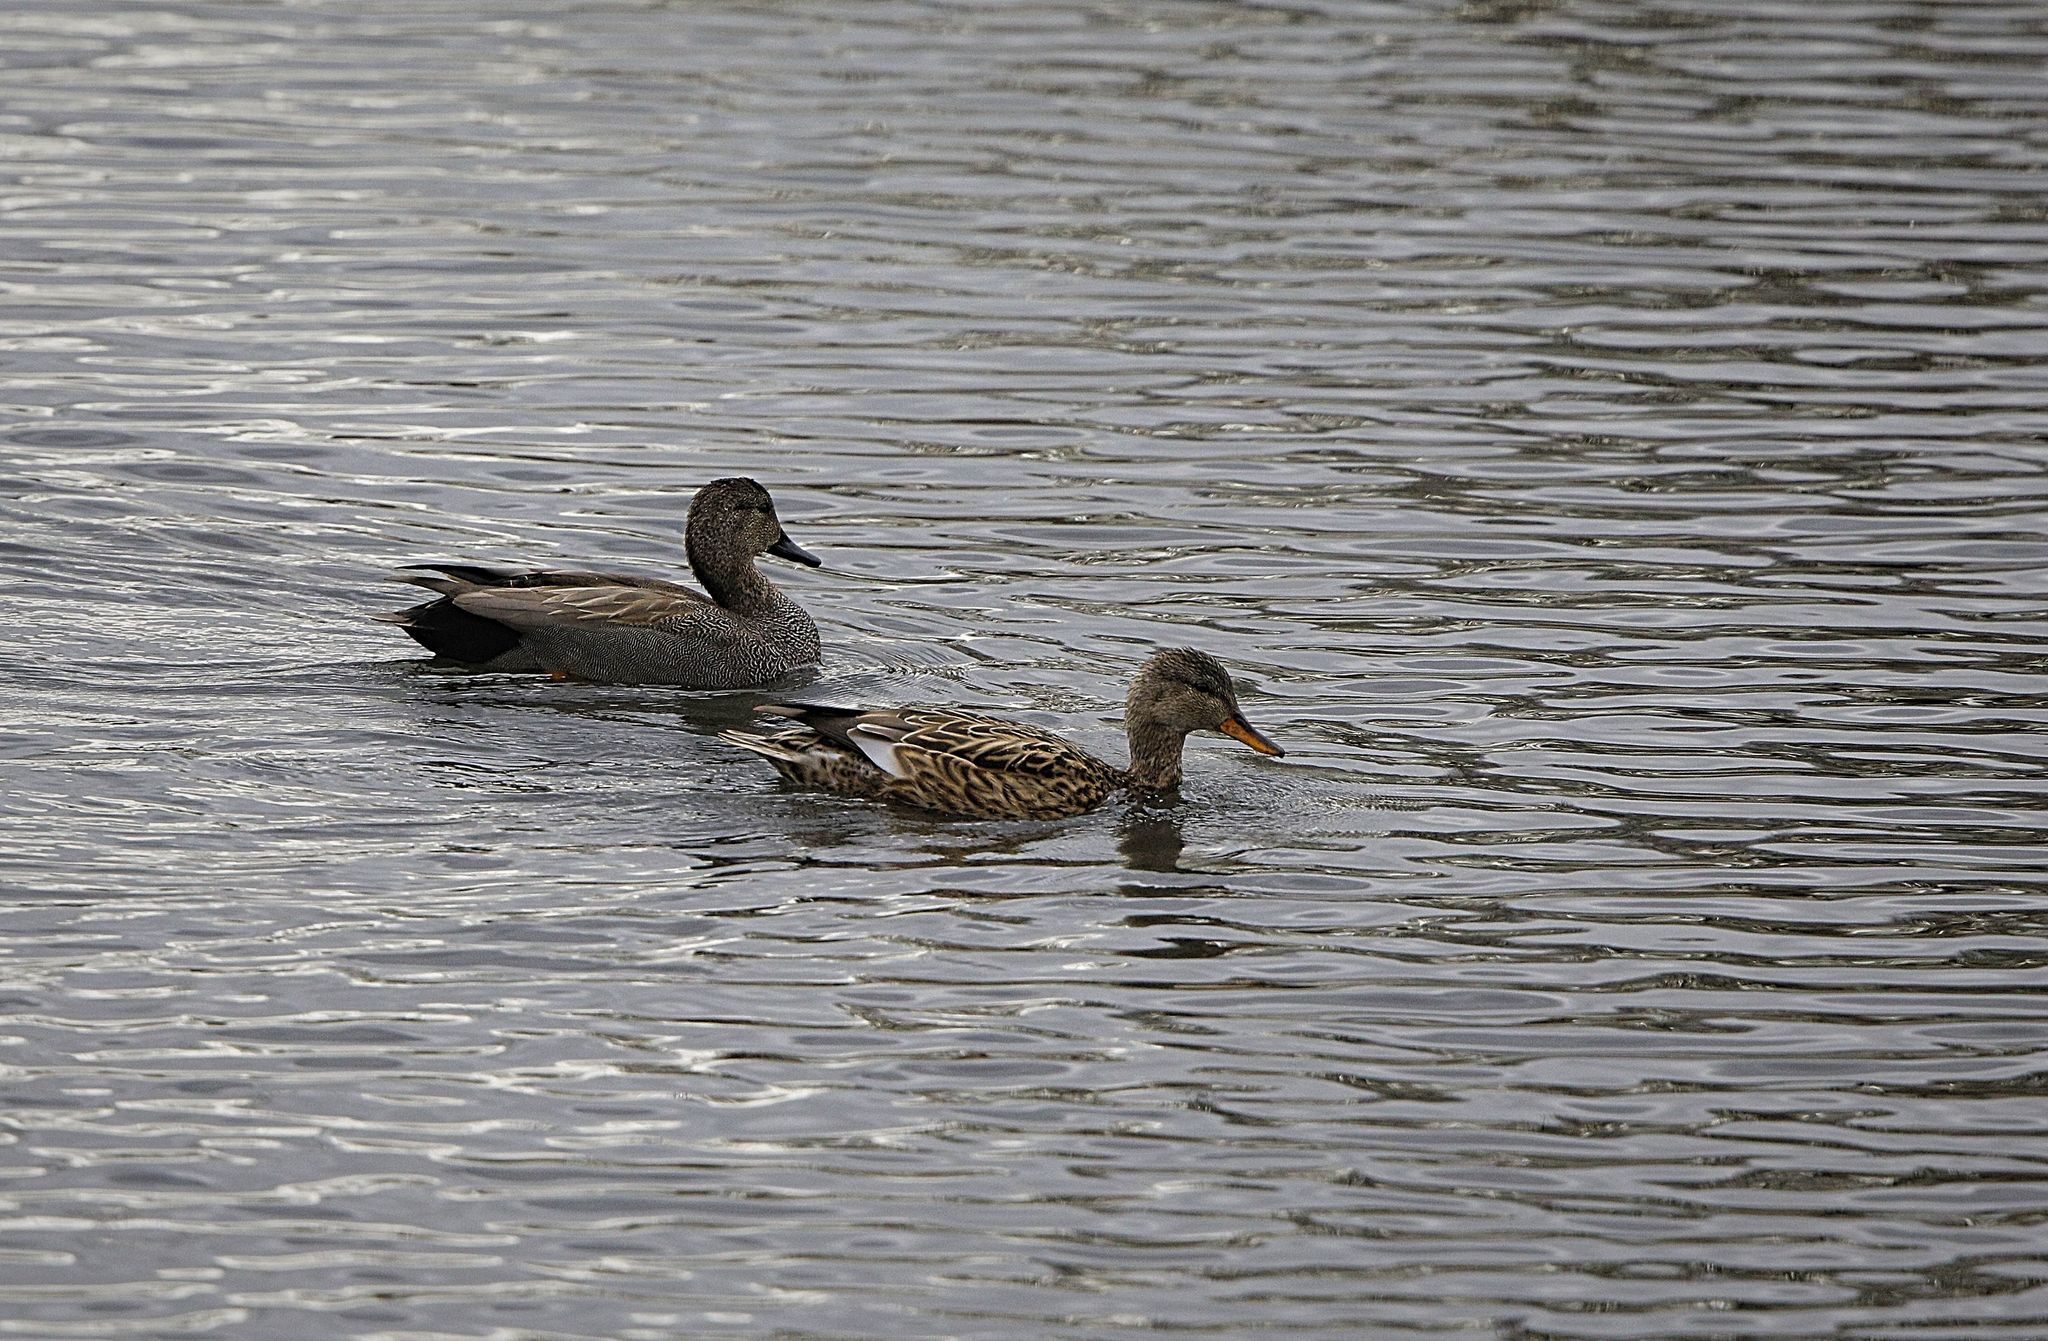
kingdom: Animalia
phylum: Chordata
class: Aves
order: Anseriformes
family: Anatidae
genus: Mareca
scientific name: Mareca strepera
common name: Gadwall
